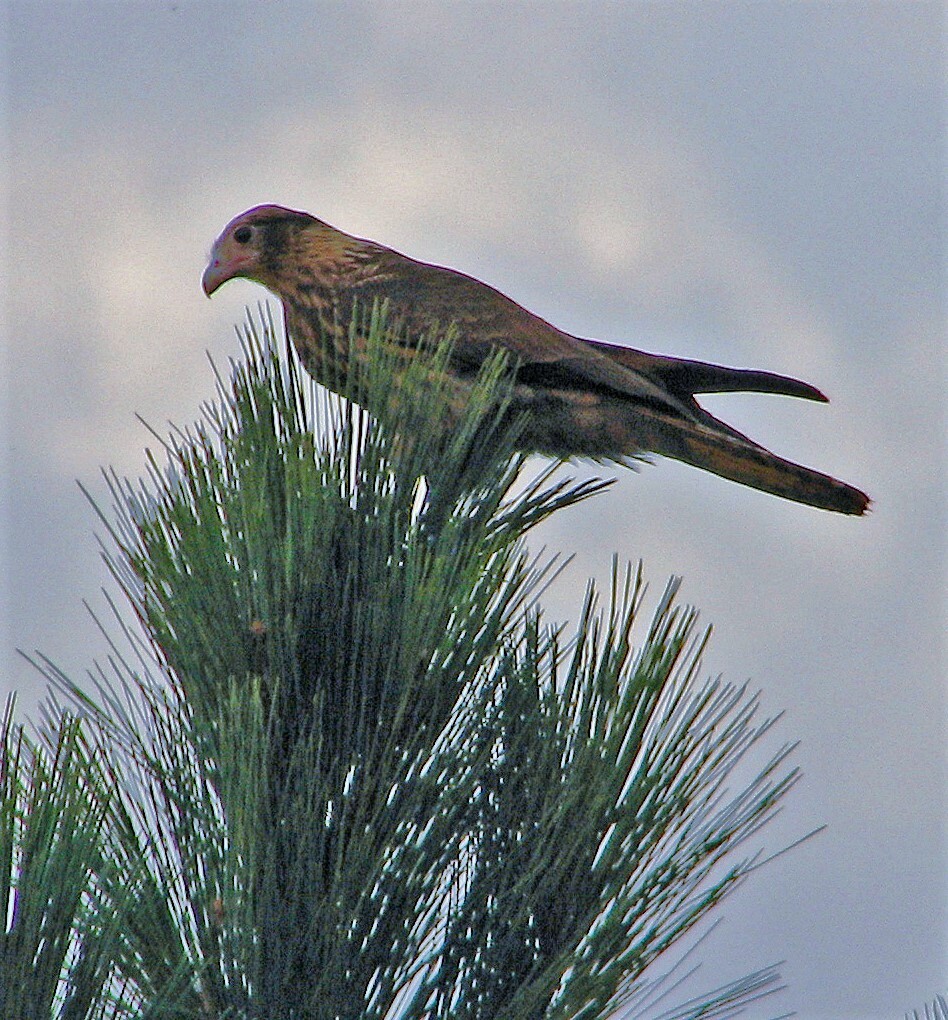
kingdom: Animalia
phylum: Chordata
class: Aves
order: Falconiformes
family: Falconidae
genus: Daptrius
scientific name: Daptrius
